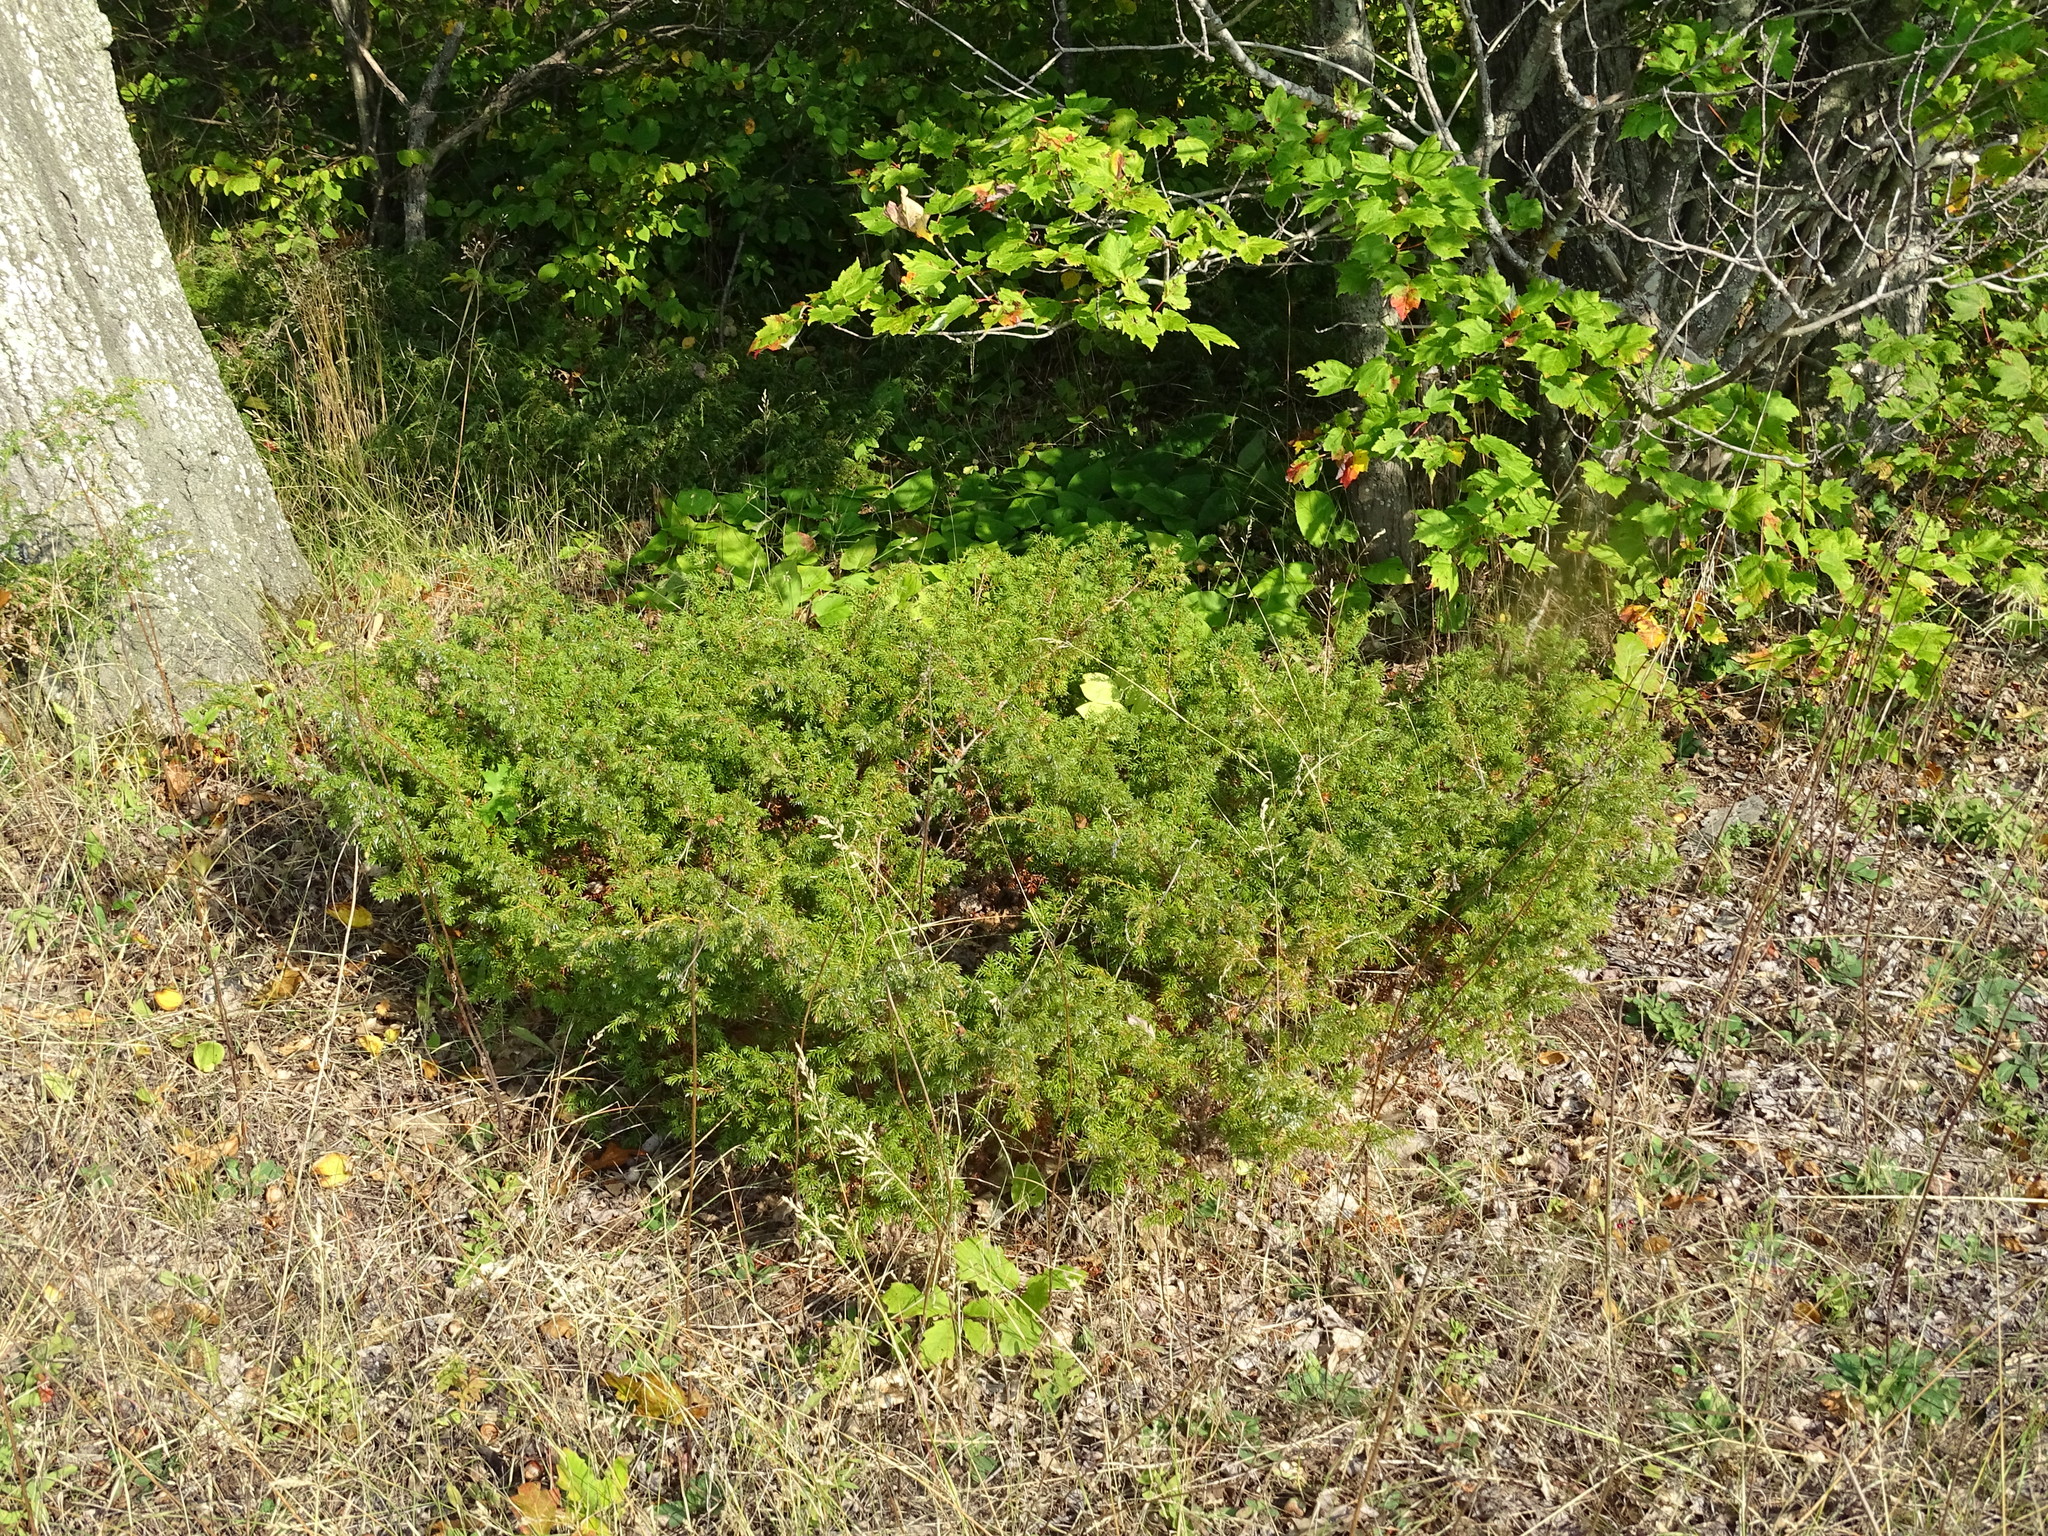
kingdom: Plantae
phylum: Tracheophyta
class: Pinopsida
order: Pinales
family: Cupressaceae
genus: Juniperus
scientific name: Juniperus communis
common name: Common juniper
